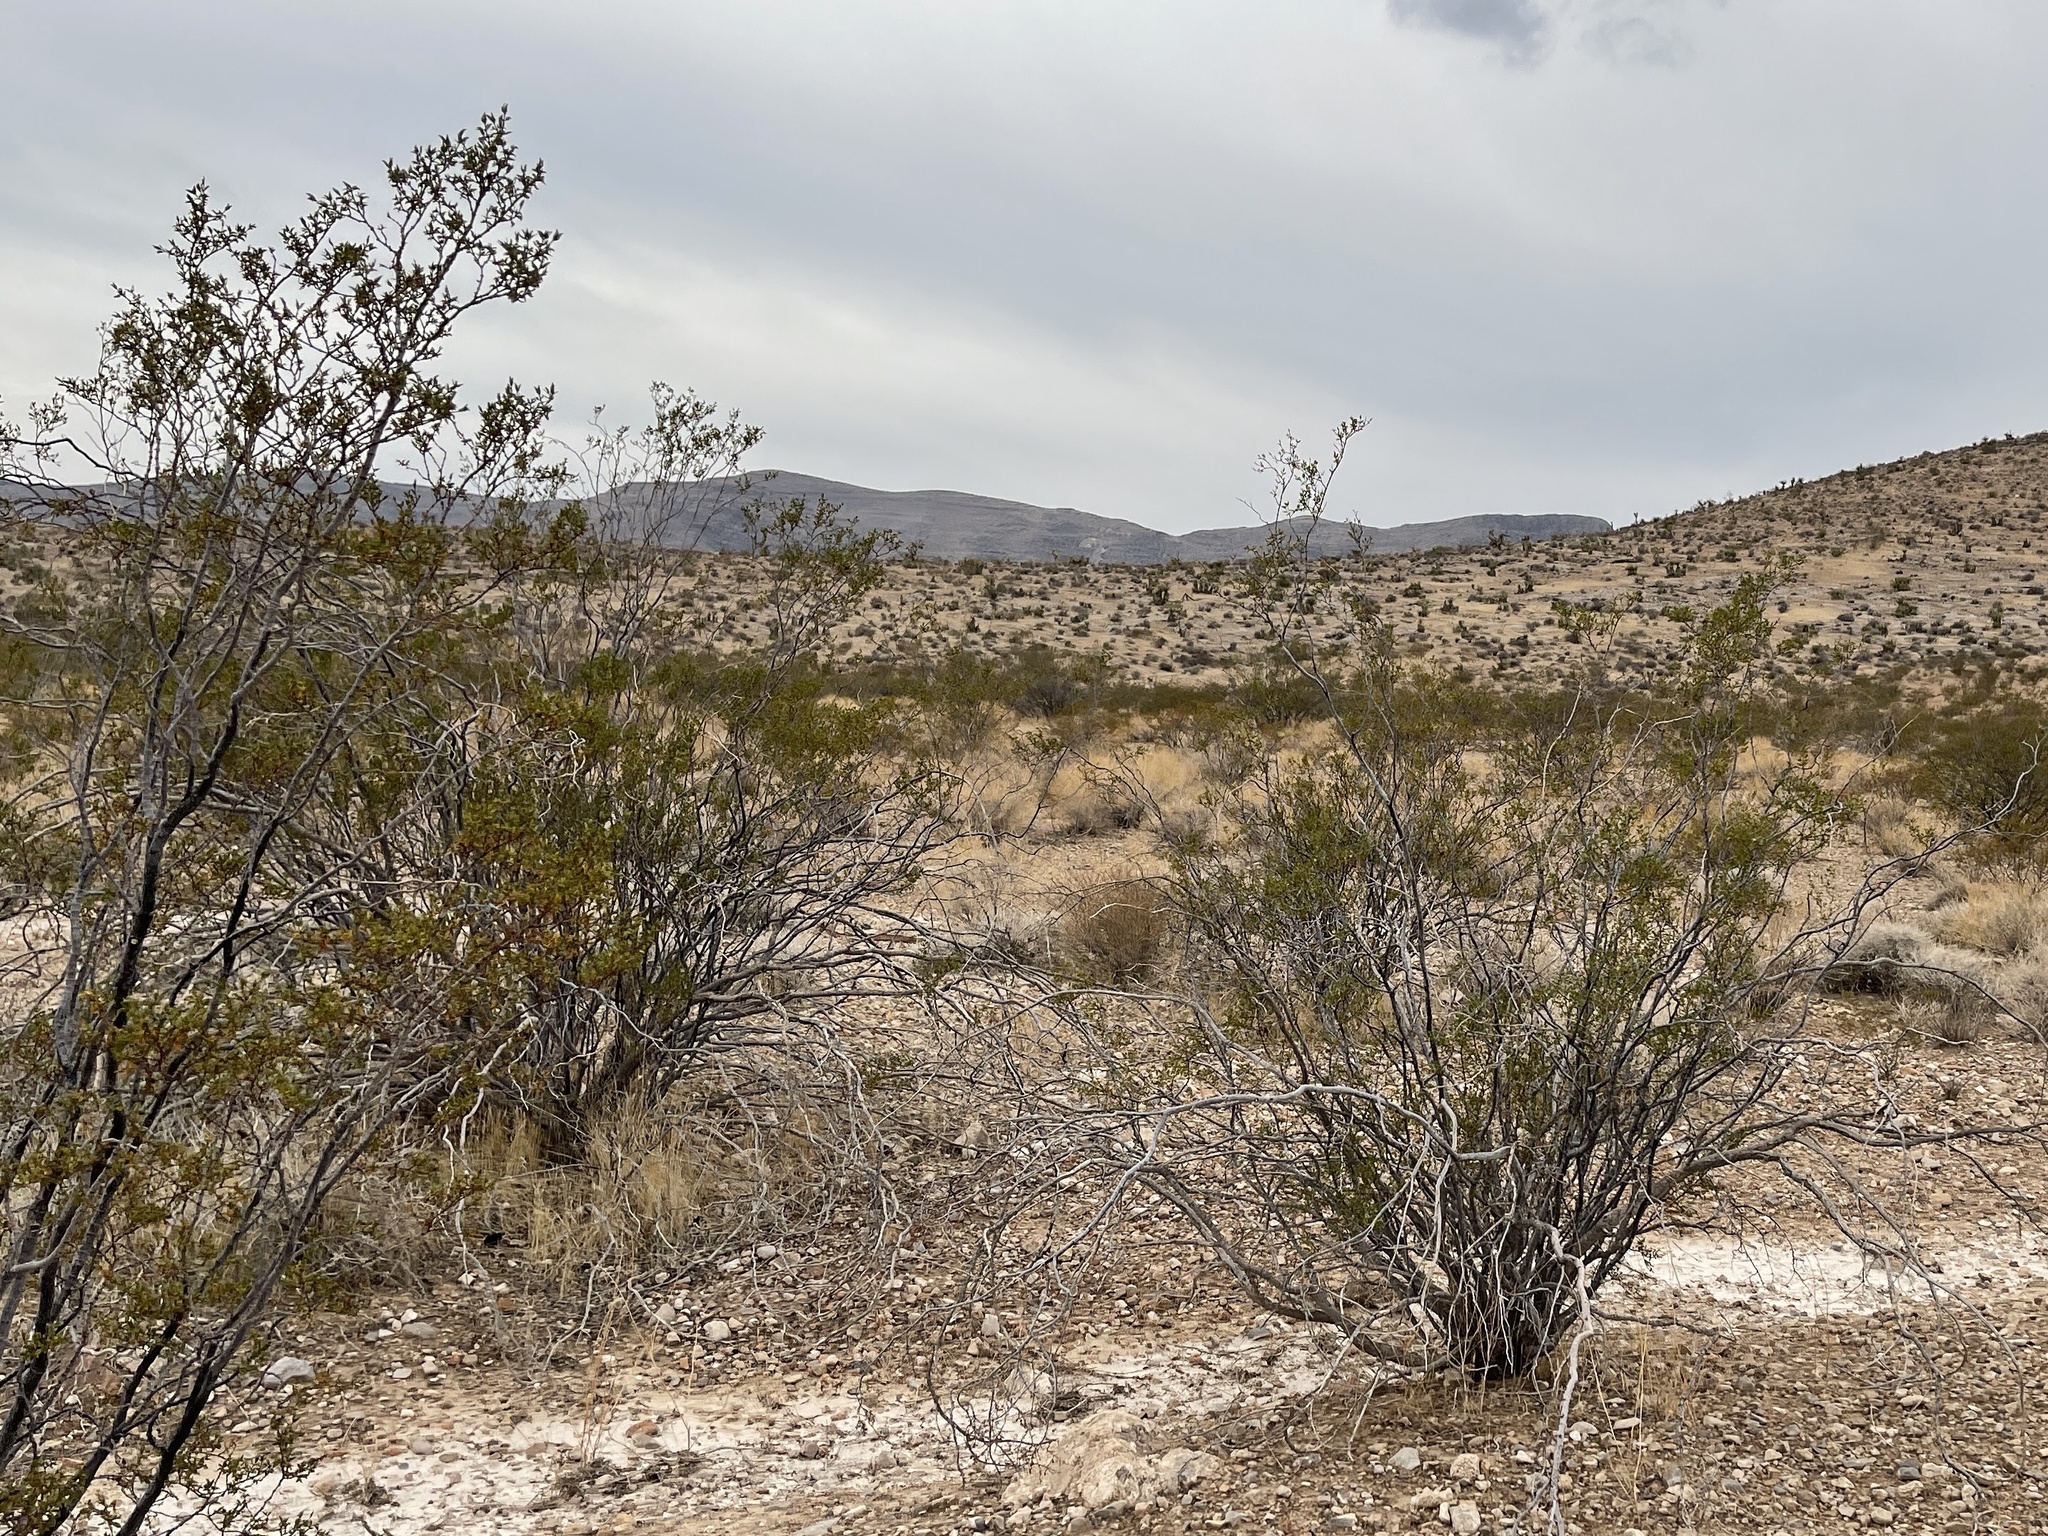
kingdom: Plantae
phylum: Tracheophyta
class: Magnoliopsida
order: Zygophyllales
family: Zygophyllaceae
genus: Larrea
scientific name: Larrea tridentata
